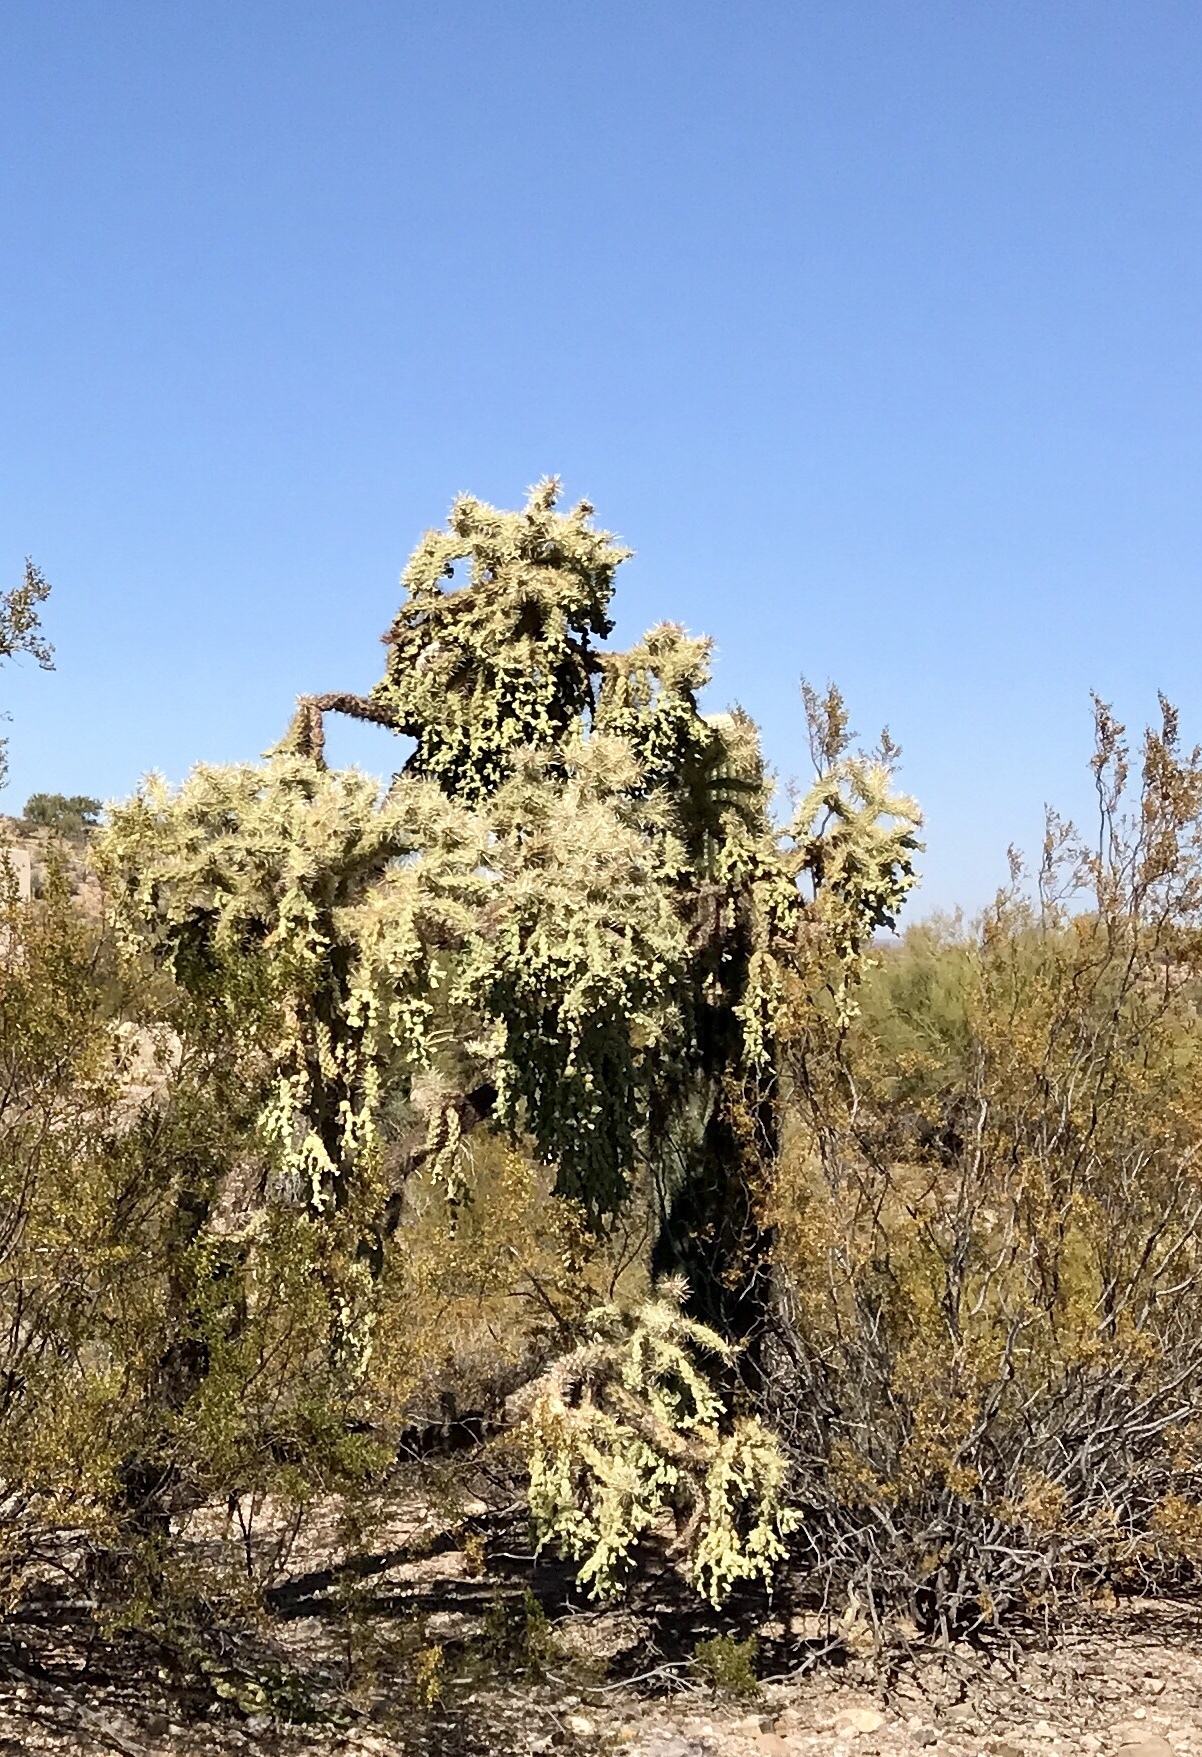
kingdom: Plantae
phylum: Tracheophyta
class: Magnoliopsida
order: Caryophyllales
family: Cactaceae
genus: Cylindropuntia
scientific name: Cylindropuntia fulgida
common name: Jumping cholla
